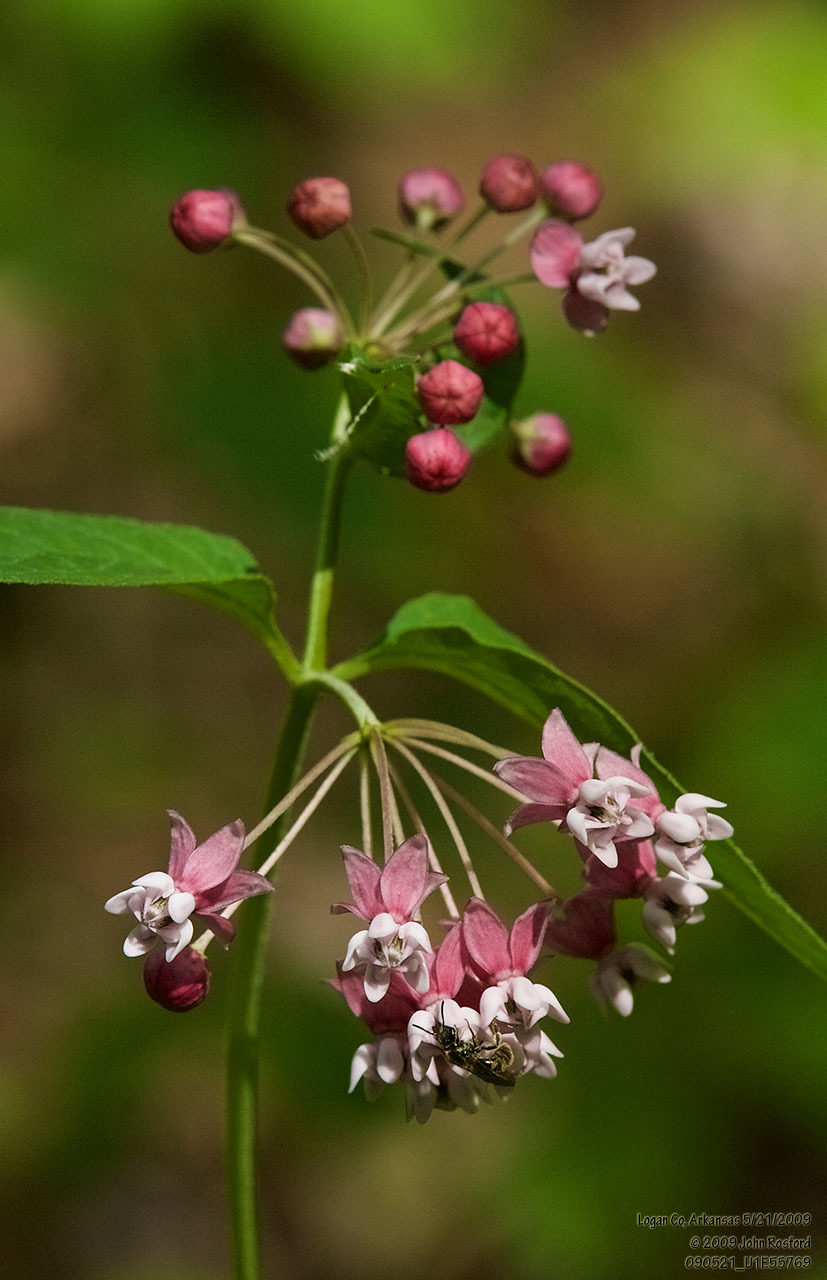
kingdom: Plantae
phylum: Tracheophyta
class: Magnoliopsida
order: Gentianales
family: Apocynaceae
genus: Asclepias
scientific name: Asclepias quadrifolia
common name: Whorled milkweed
